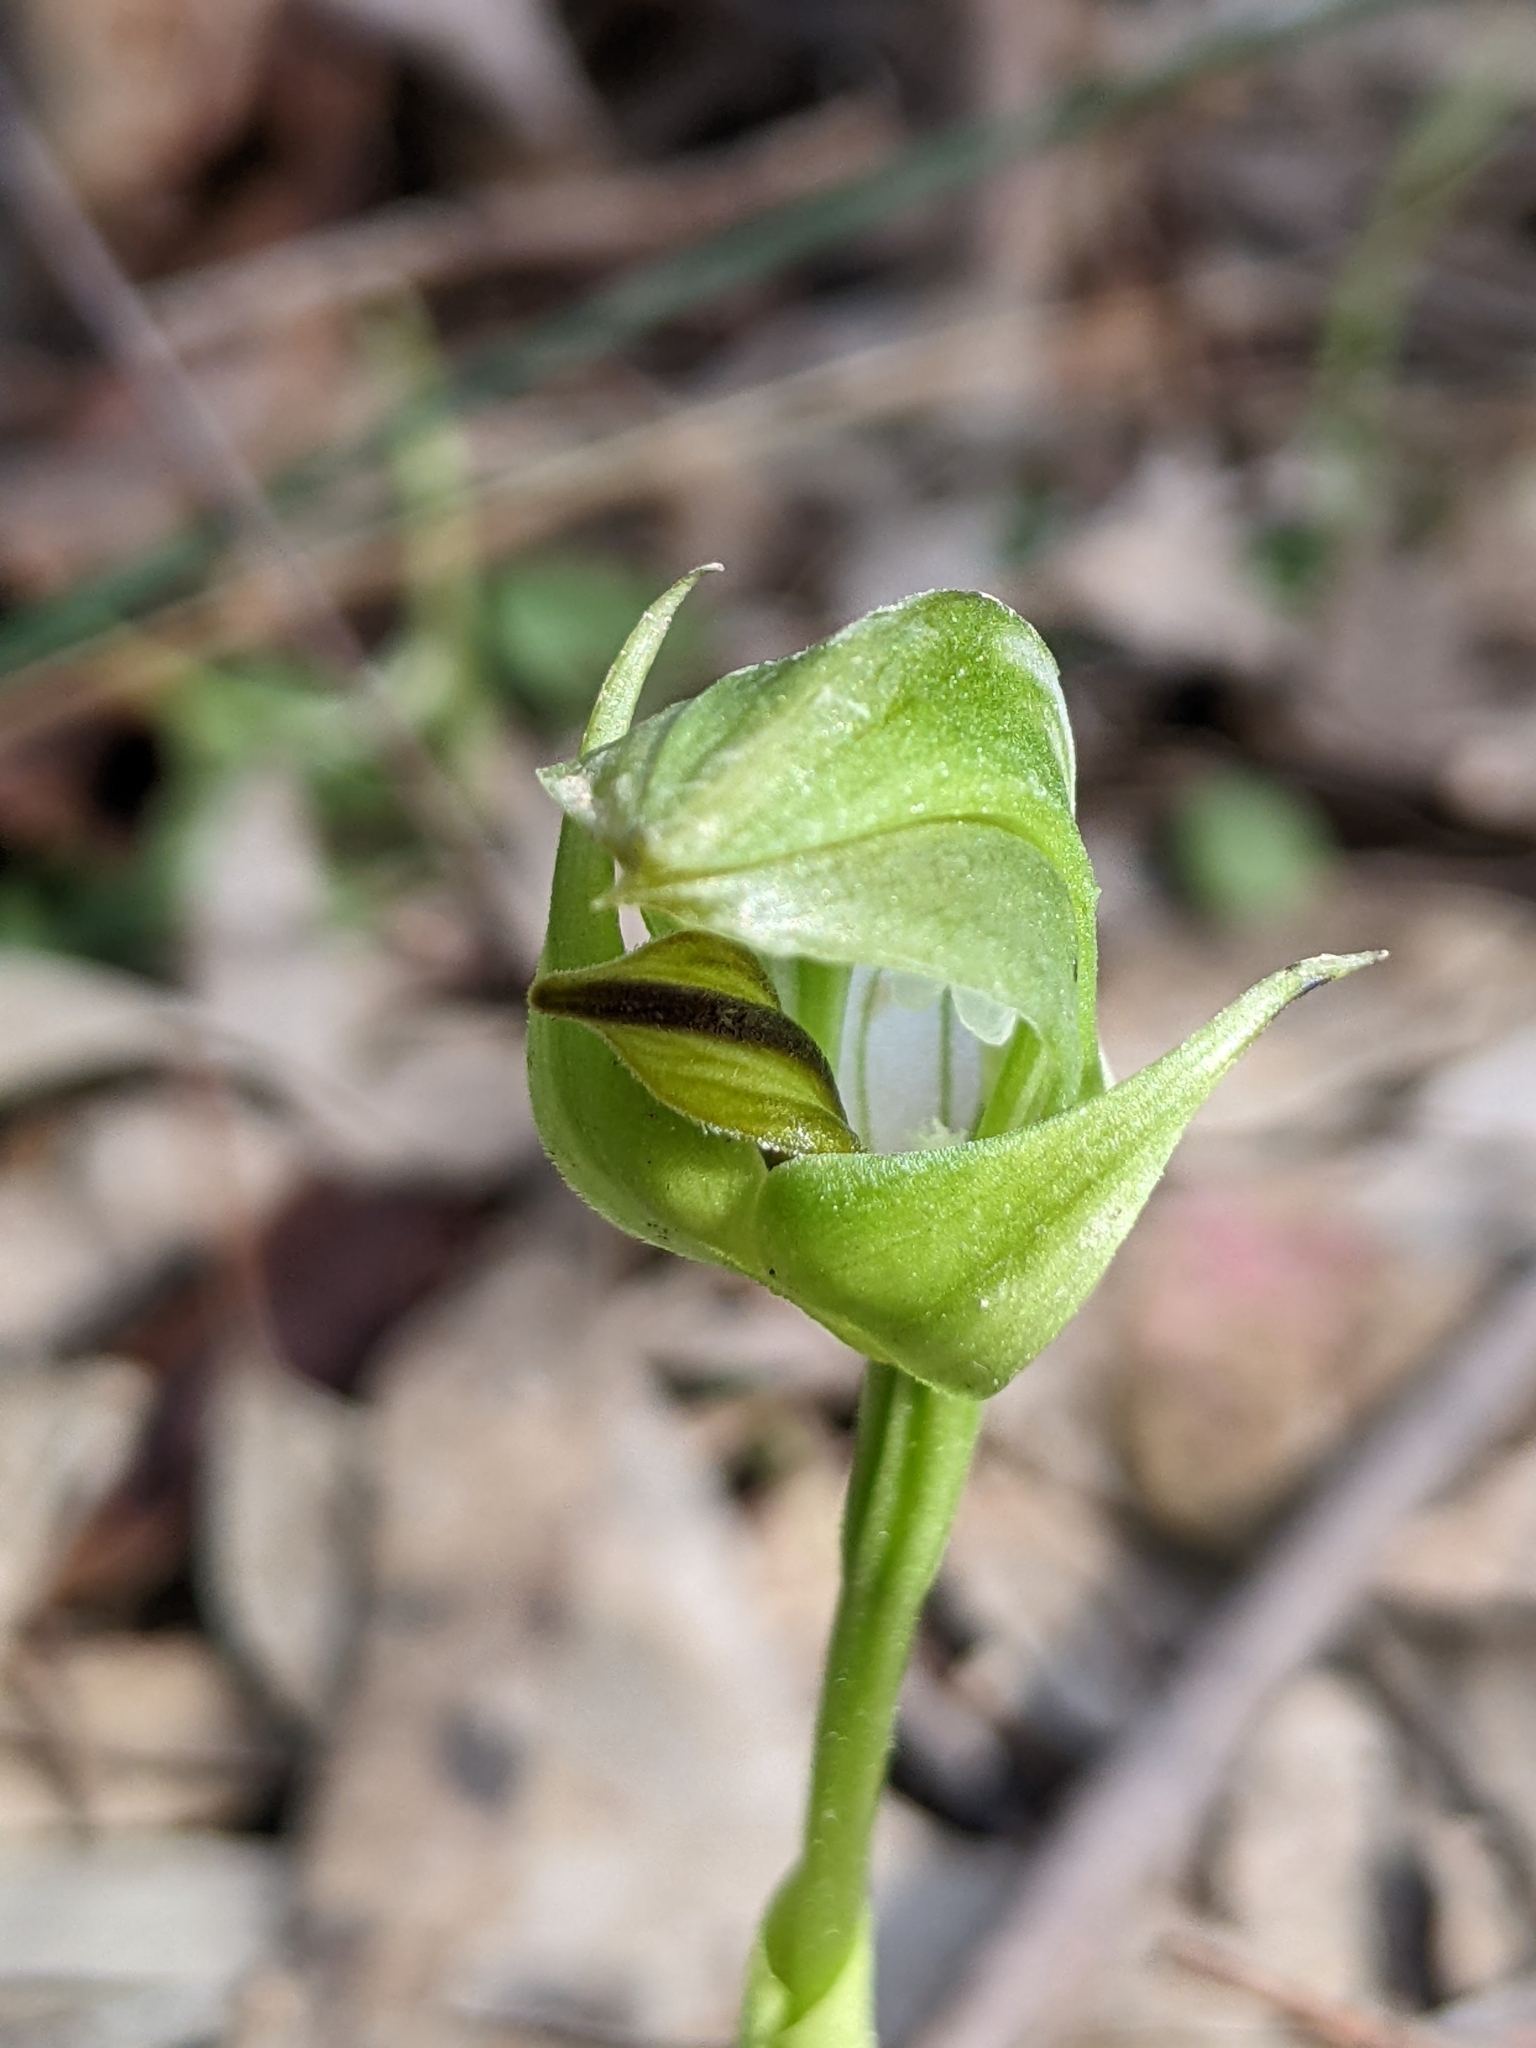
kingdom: Plantae
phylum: Tracheophyta
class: Liliopsida
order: Asparagales
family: Orchidaceae
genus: Pterostylis
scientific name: Pterostylis curta
